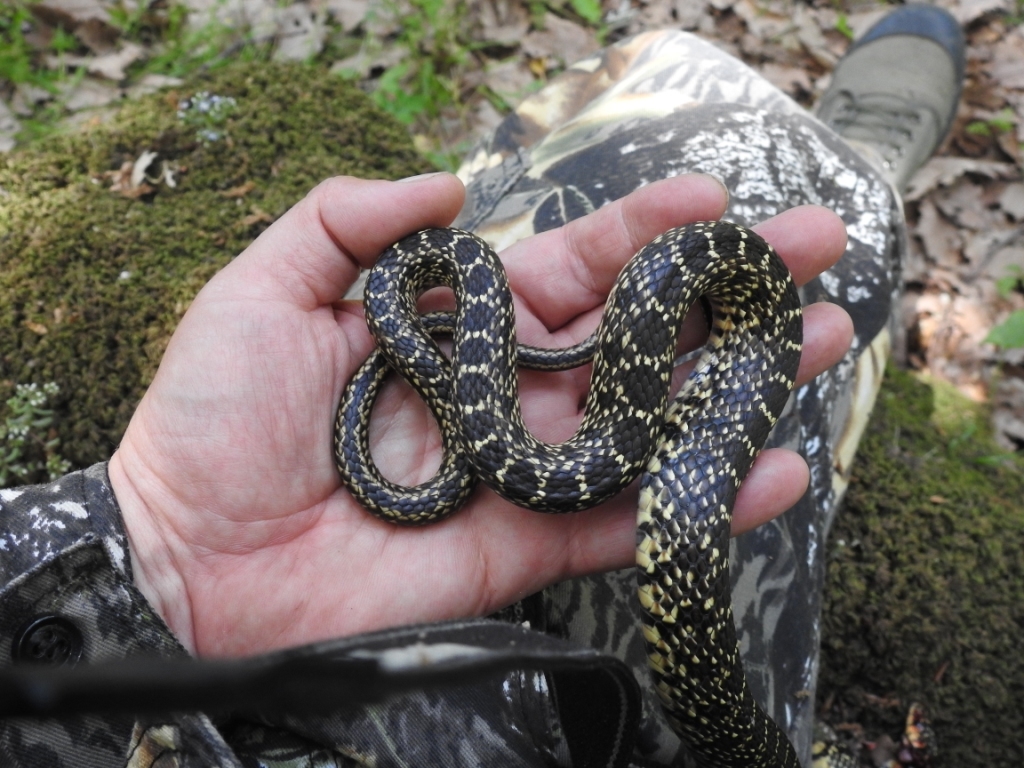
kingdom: Animalia
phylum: Chordata
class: Squamata
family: Colubridae
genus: Hemorrhois
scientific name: Hemorrhois hippocrepis
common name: Horseshoe whip snake
